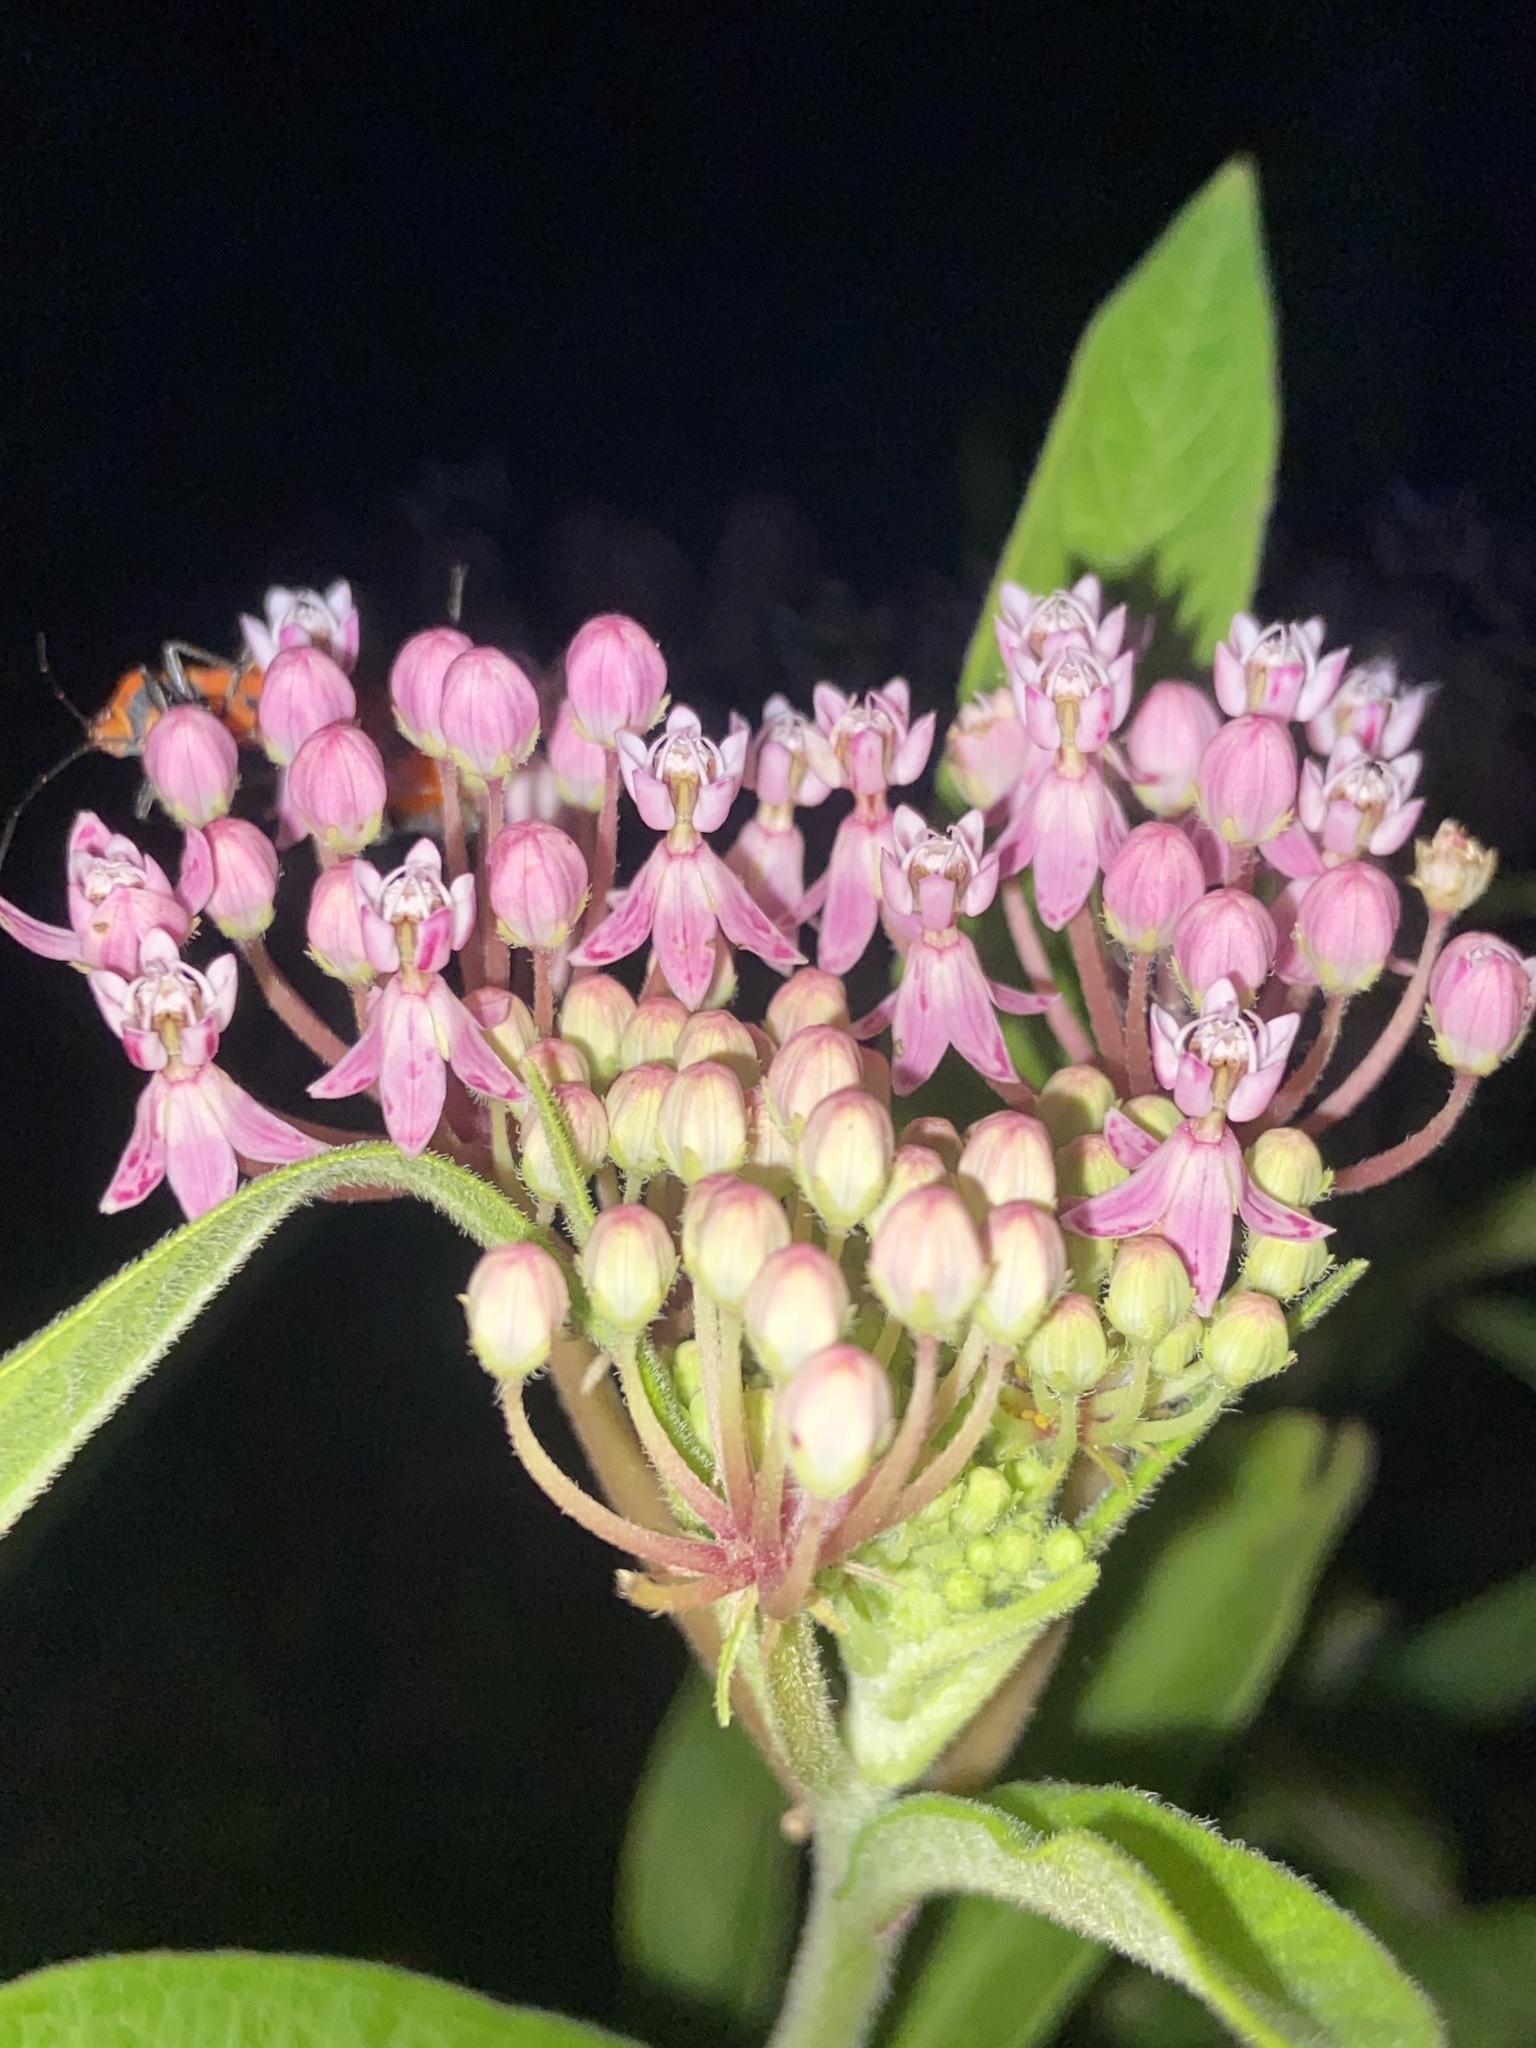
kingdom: Plantae
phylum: Tracheophyta
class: Magnoliopsida
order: Gentianales
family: Apocynaceae
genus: Asclepias
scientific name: Asclepias incarnata
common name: Swamp milkweed
